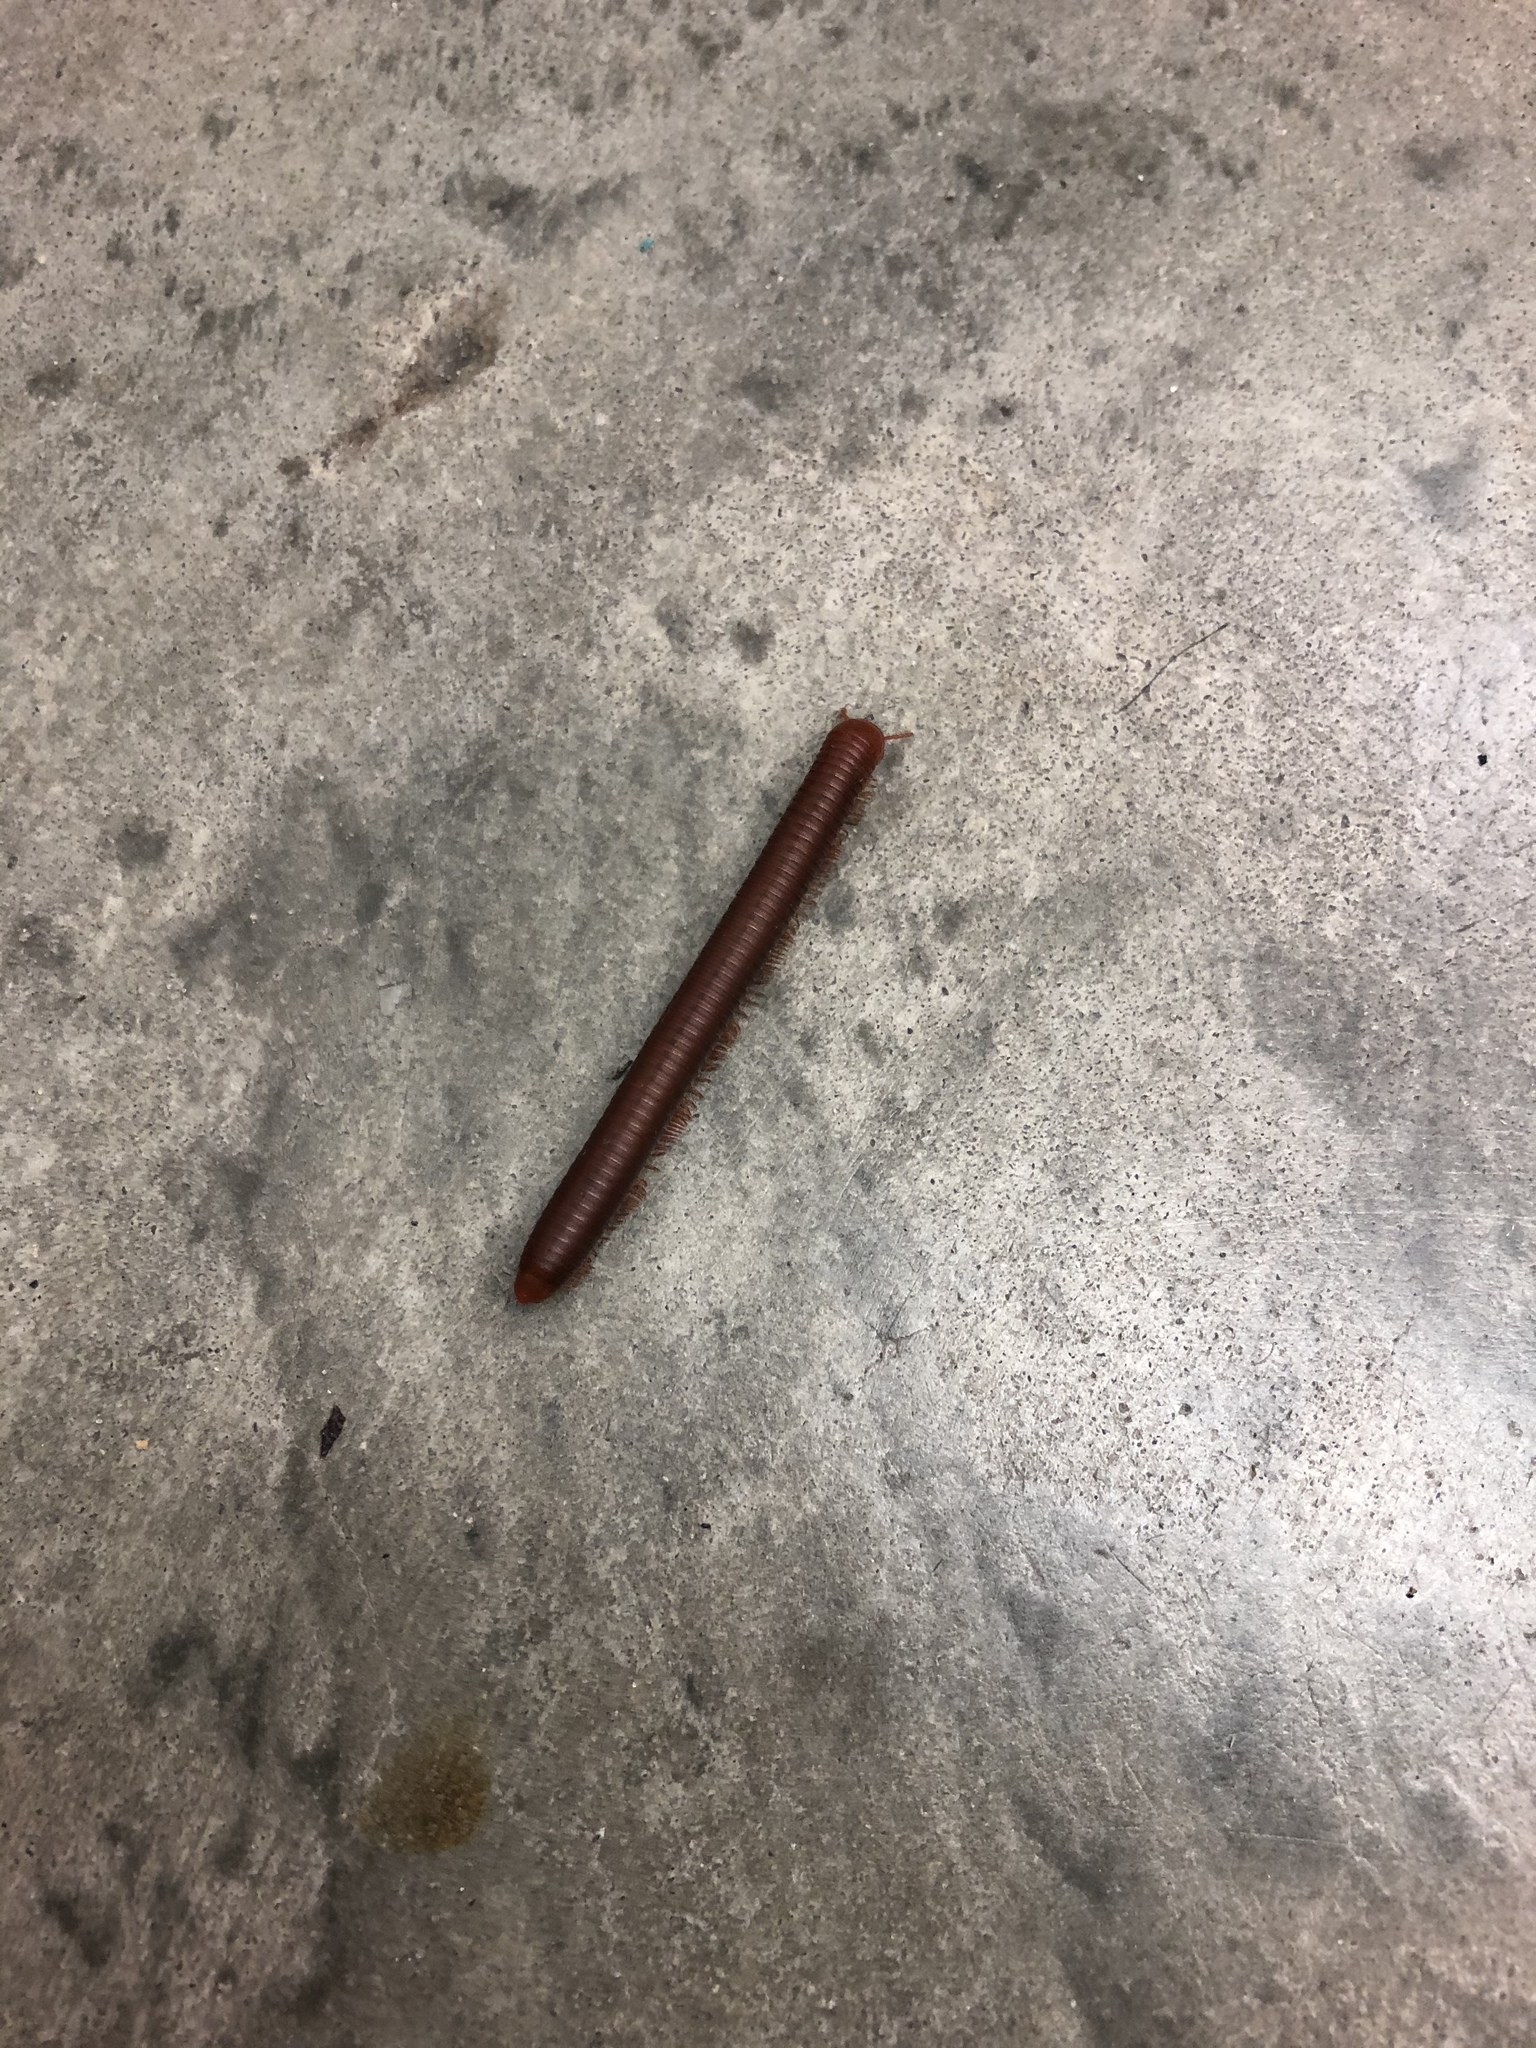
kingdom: Animalia
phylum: Arthropoda
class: Diplopoda
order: Spirobolida
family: Pachybolidae
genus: Trigoniulus
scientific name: Trigoniulus corallinus
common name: Millipede
